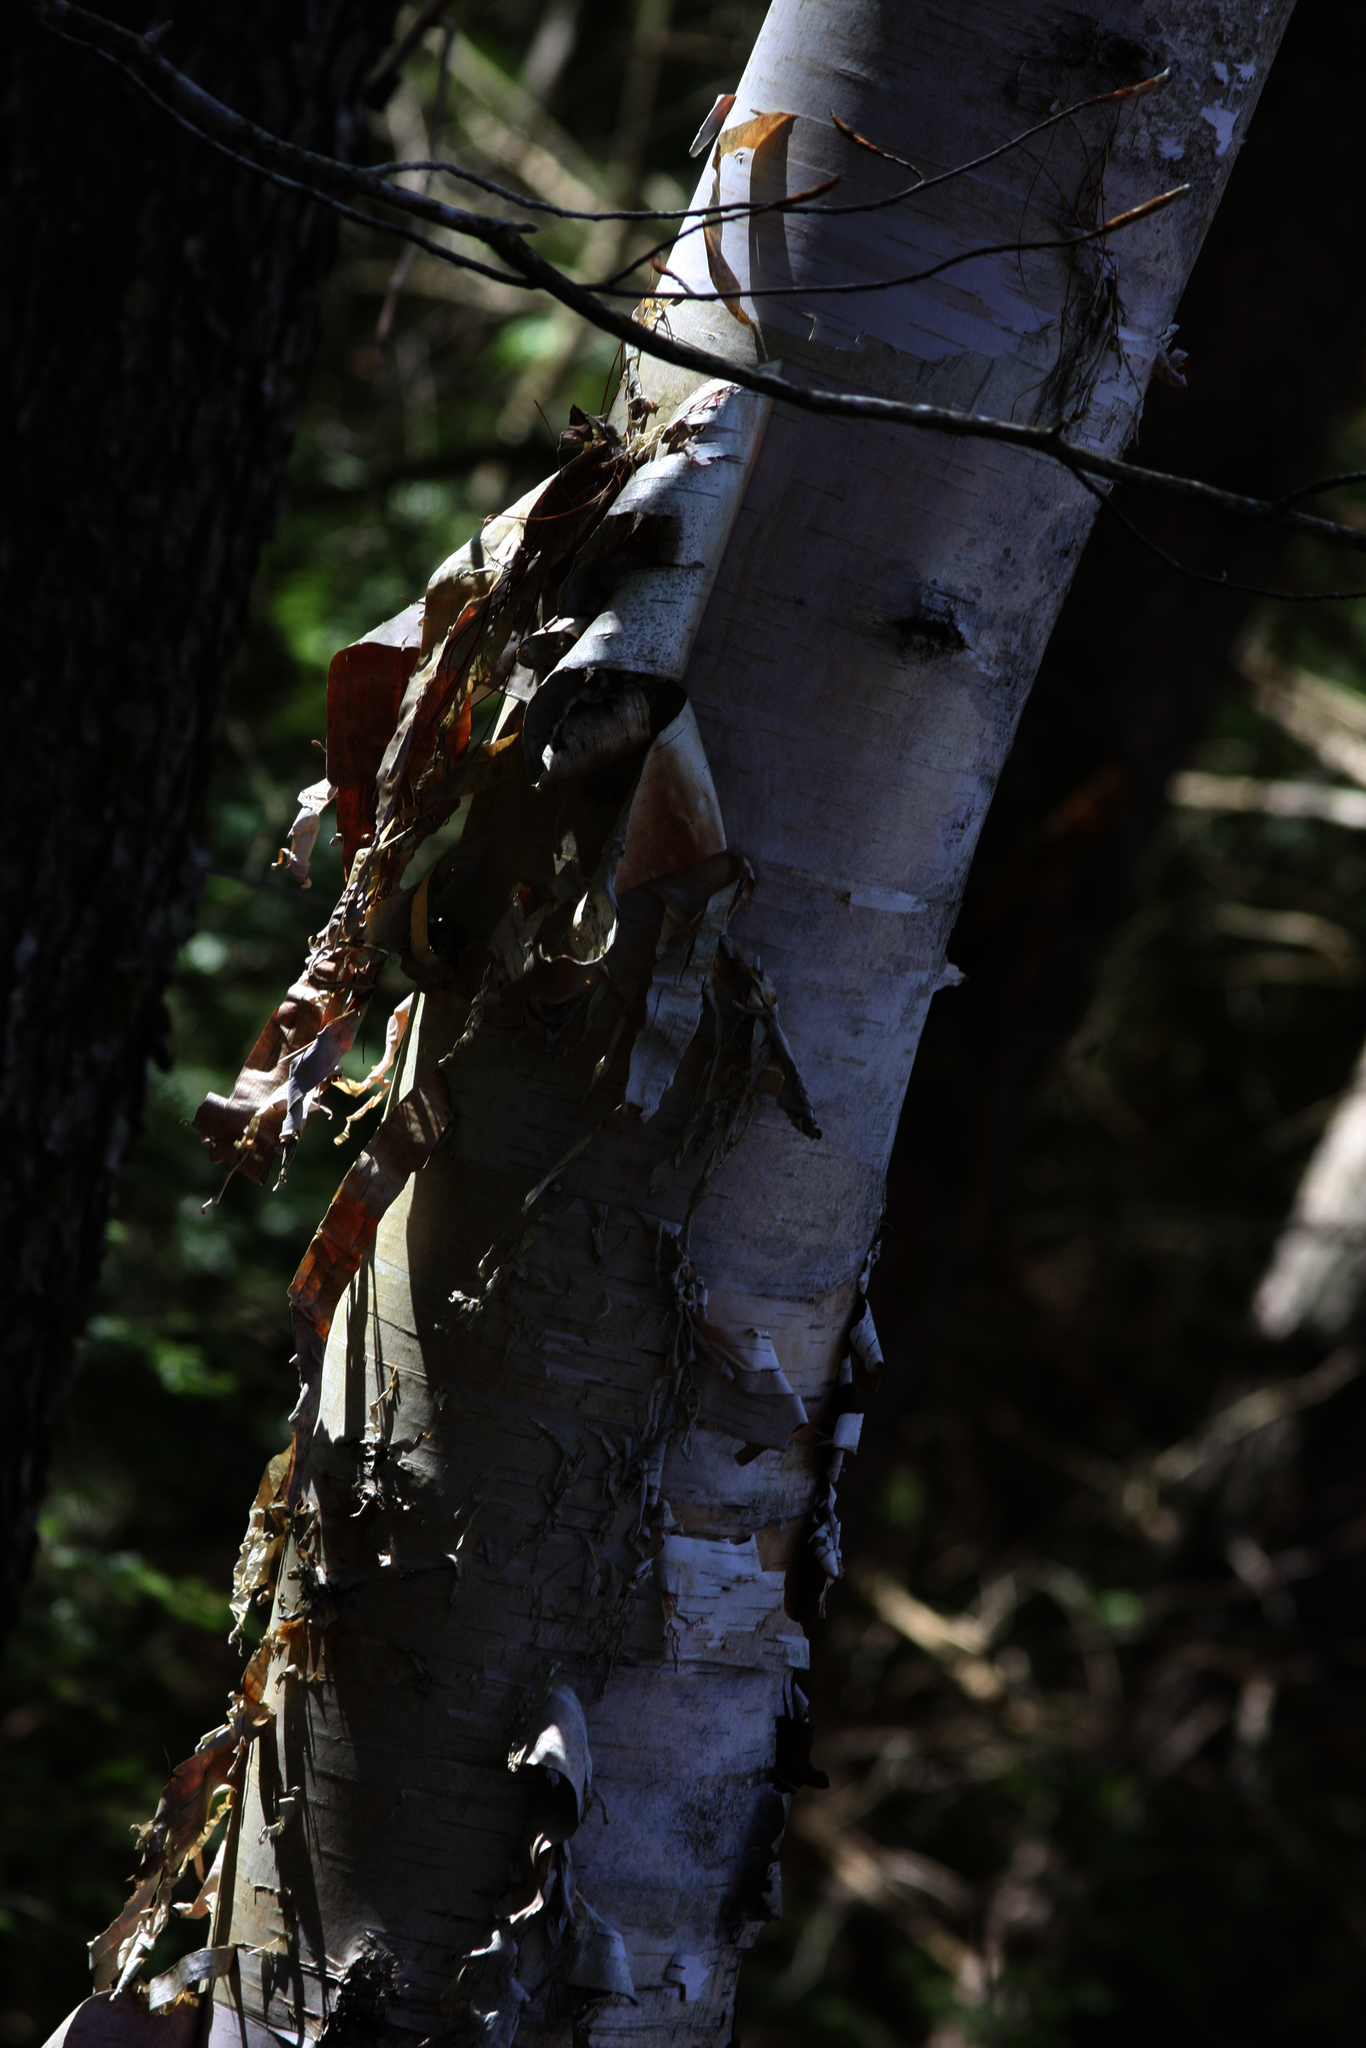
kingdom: Plantae
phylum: Tracheophyta
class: Magnoliopsida
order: Fagales
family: Betulaceae
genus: Betula
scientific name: Betula papyrifera
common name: Paper birch
